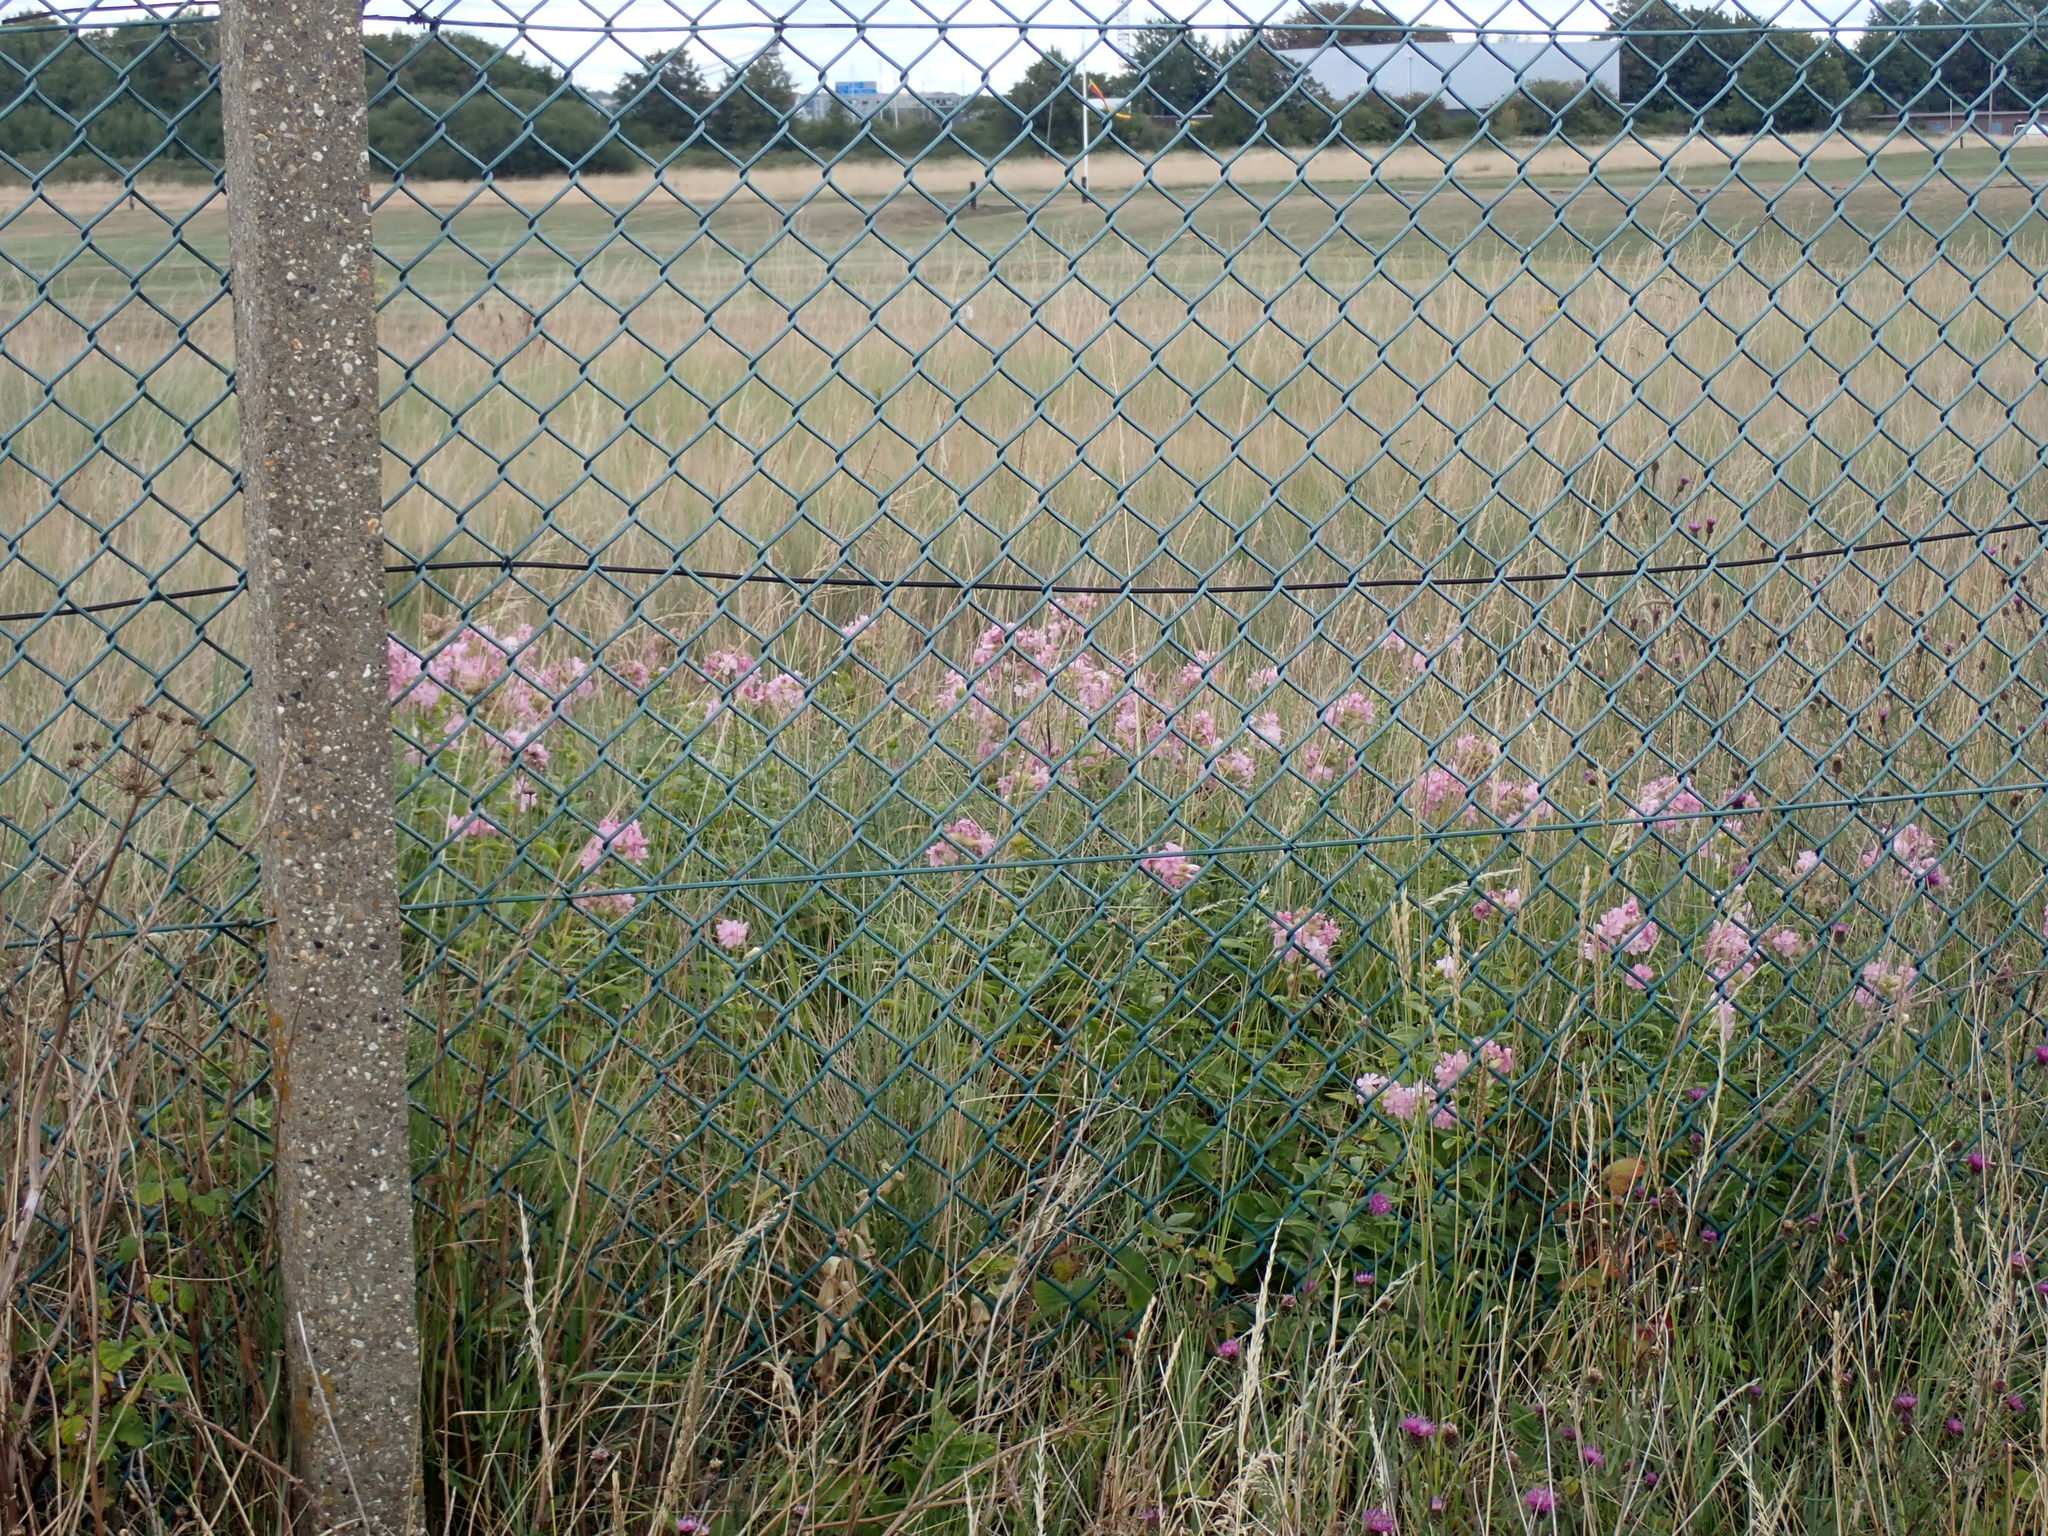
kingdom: Plantae
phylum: Tracheophyta
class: Magnoliopsida
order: Caryophyllales
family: Caryophyllaceae
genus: Saponaria
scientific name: Saponaria officinalis
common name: Soapwort
